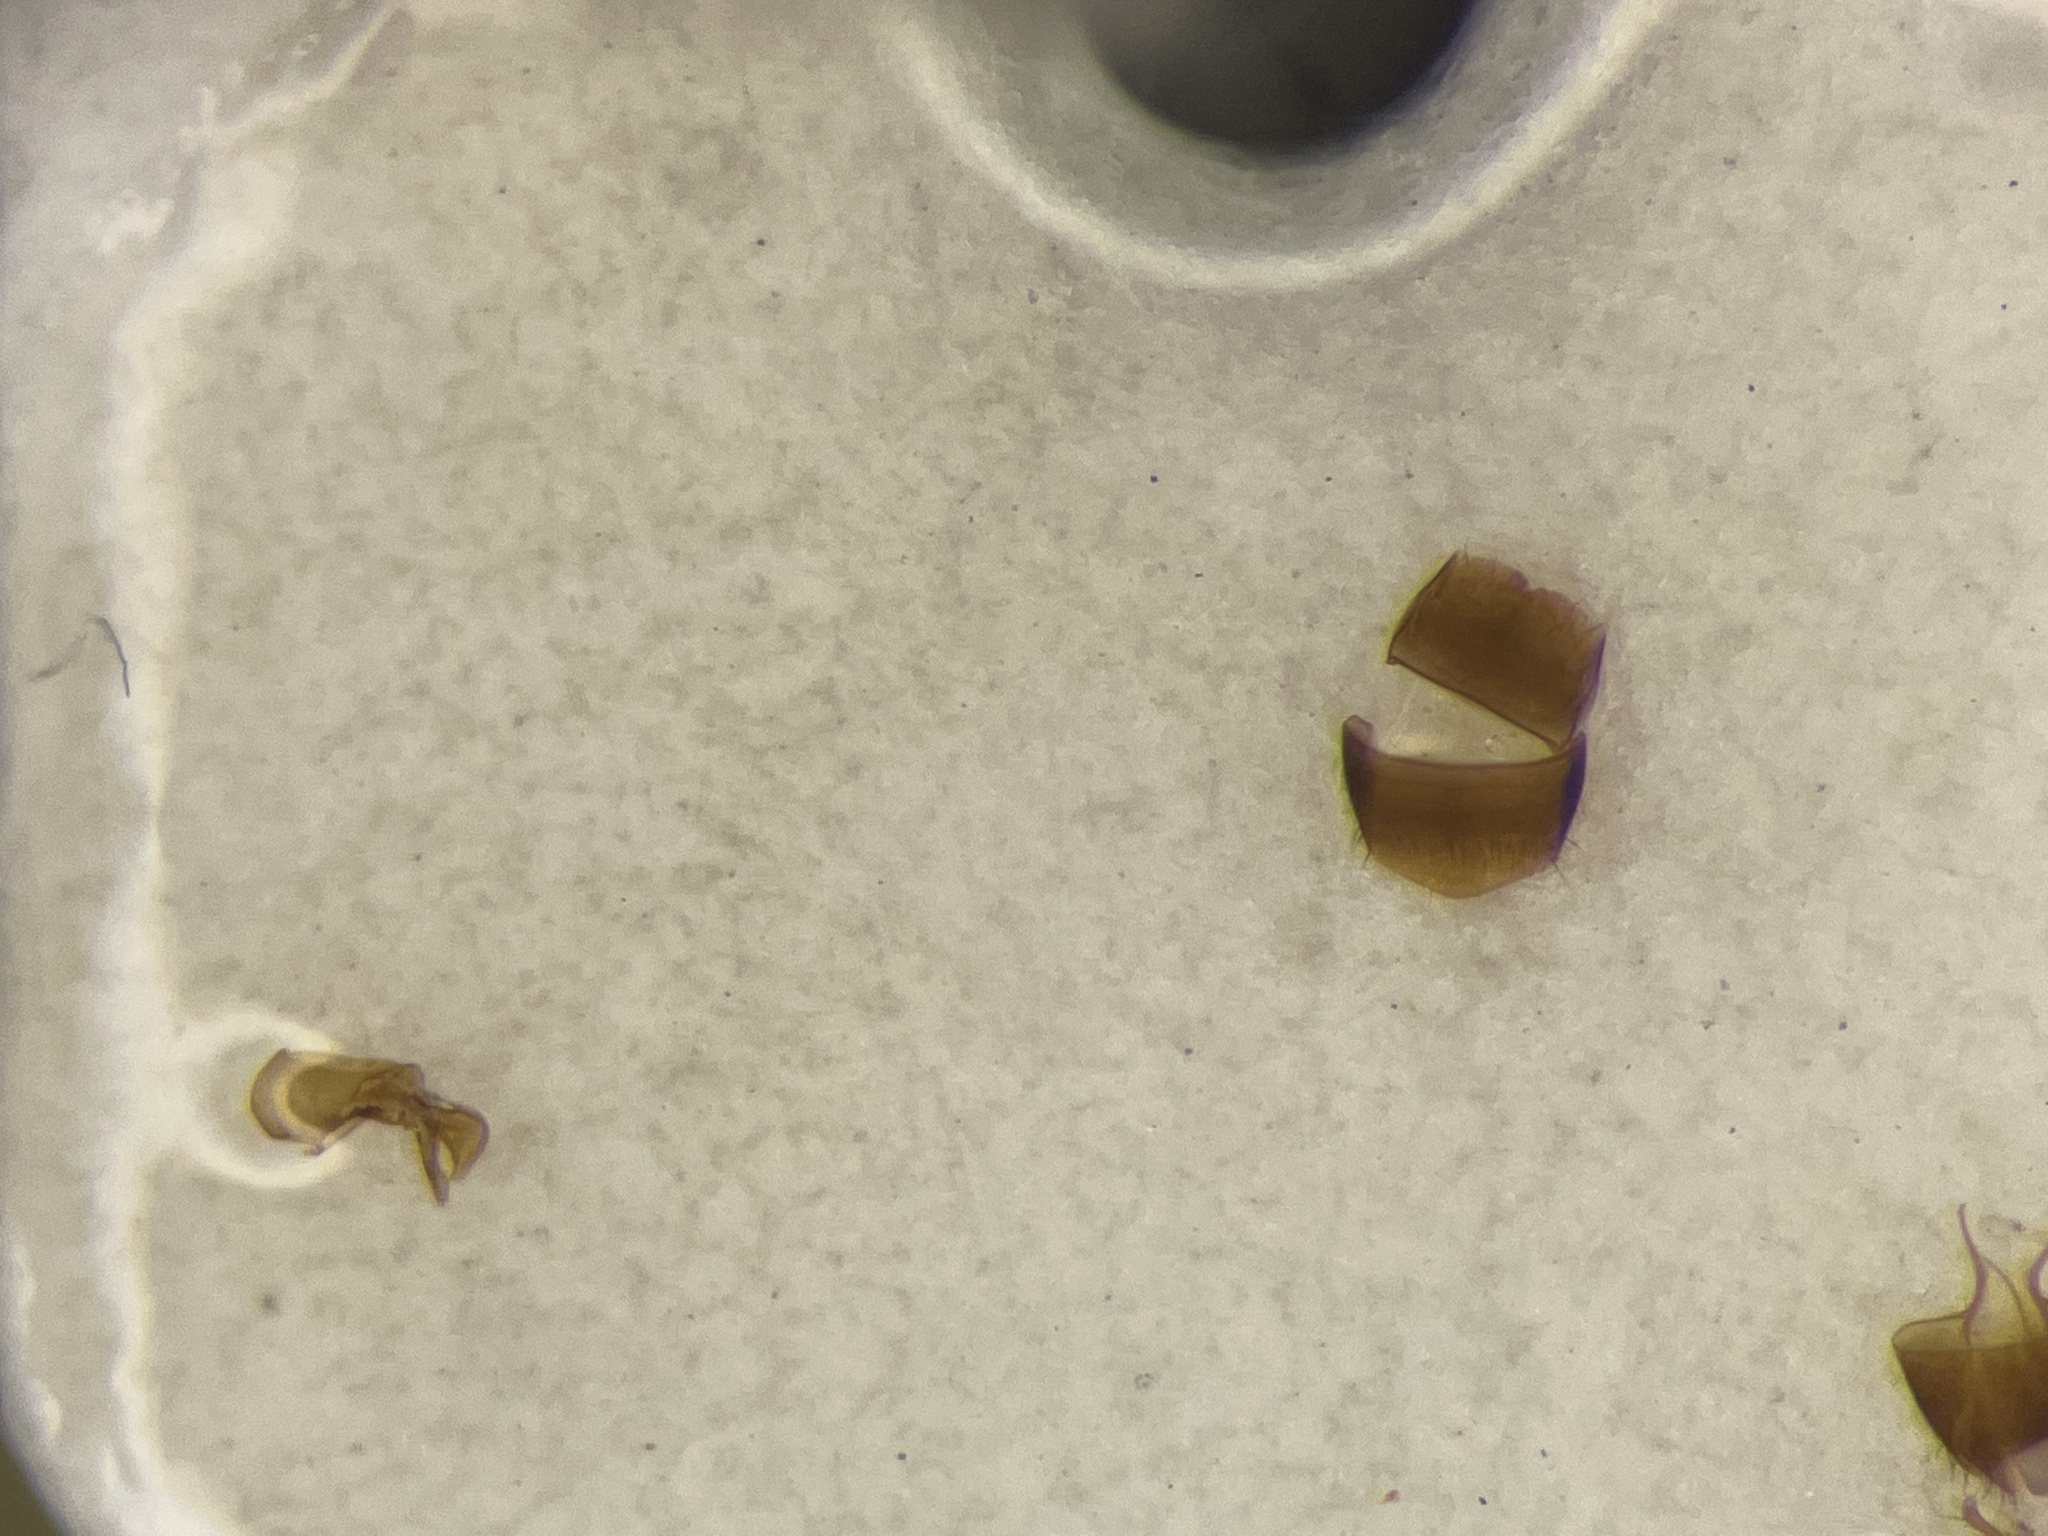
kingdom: Animalia
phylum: Arthropoda
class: Insecta
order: Coleoptera
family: Staphylinidae
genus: Leptusa
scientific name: Leptusa carolinensis
